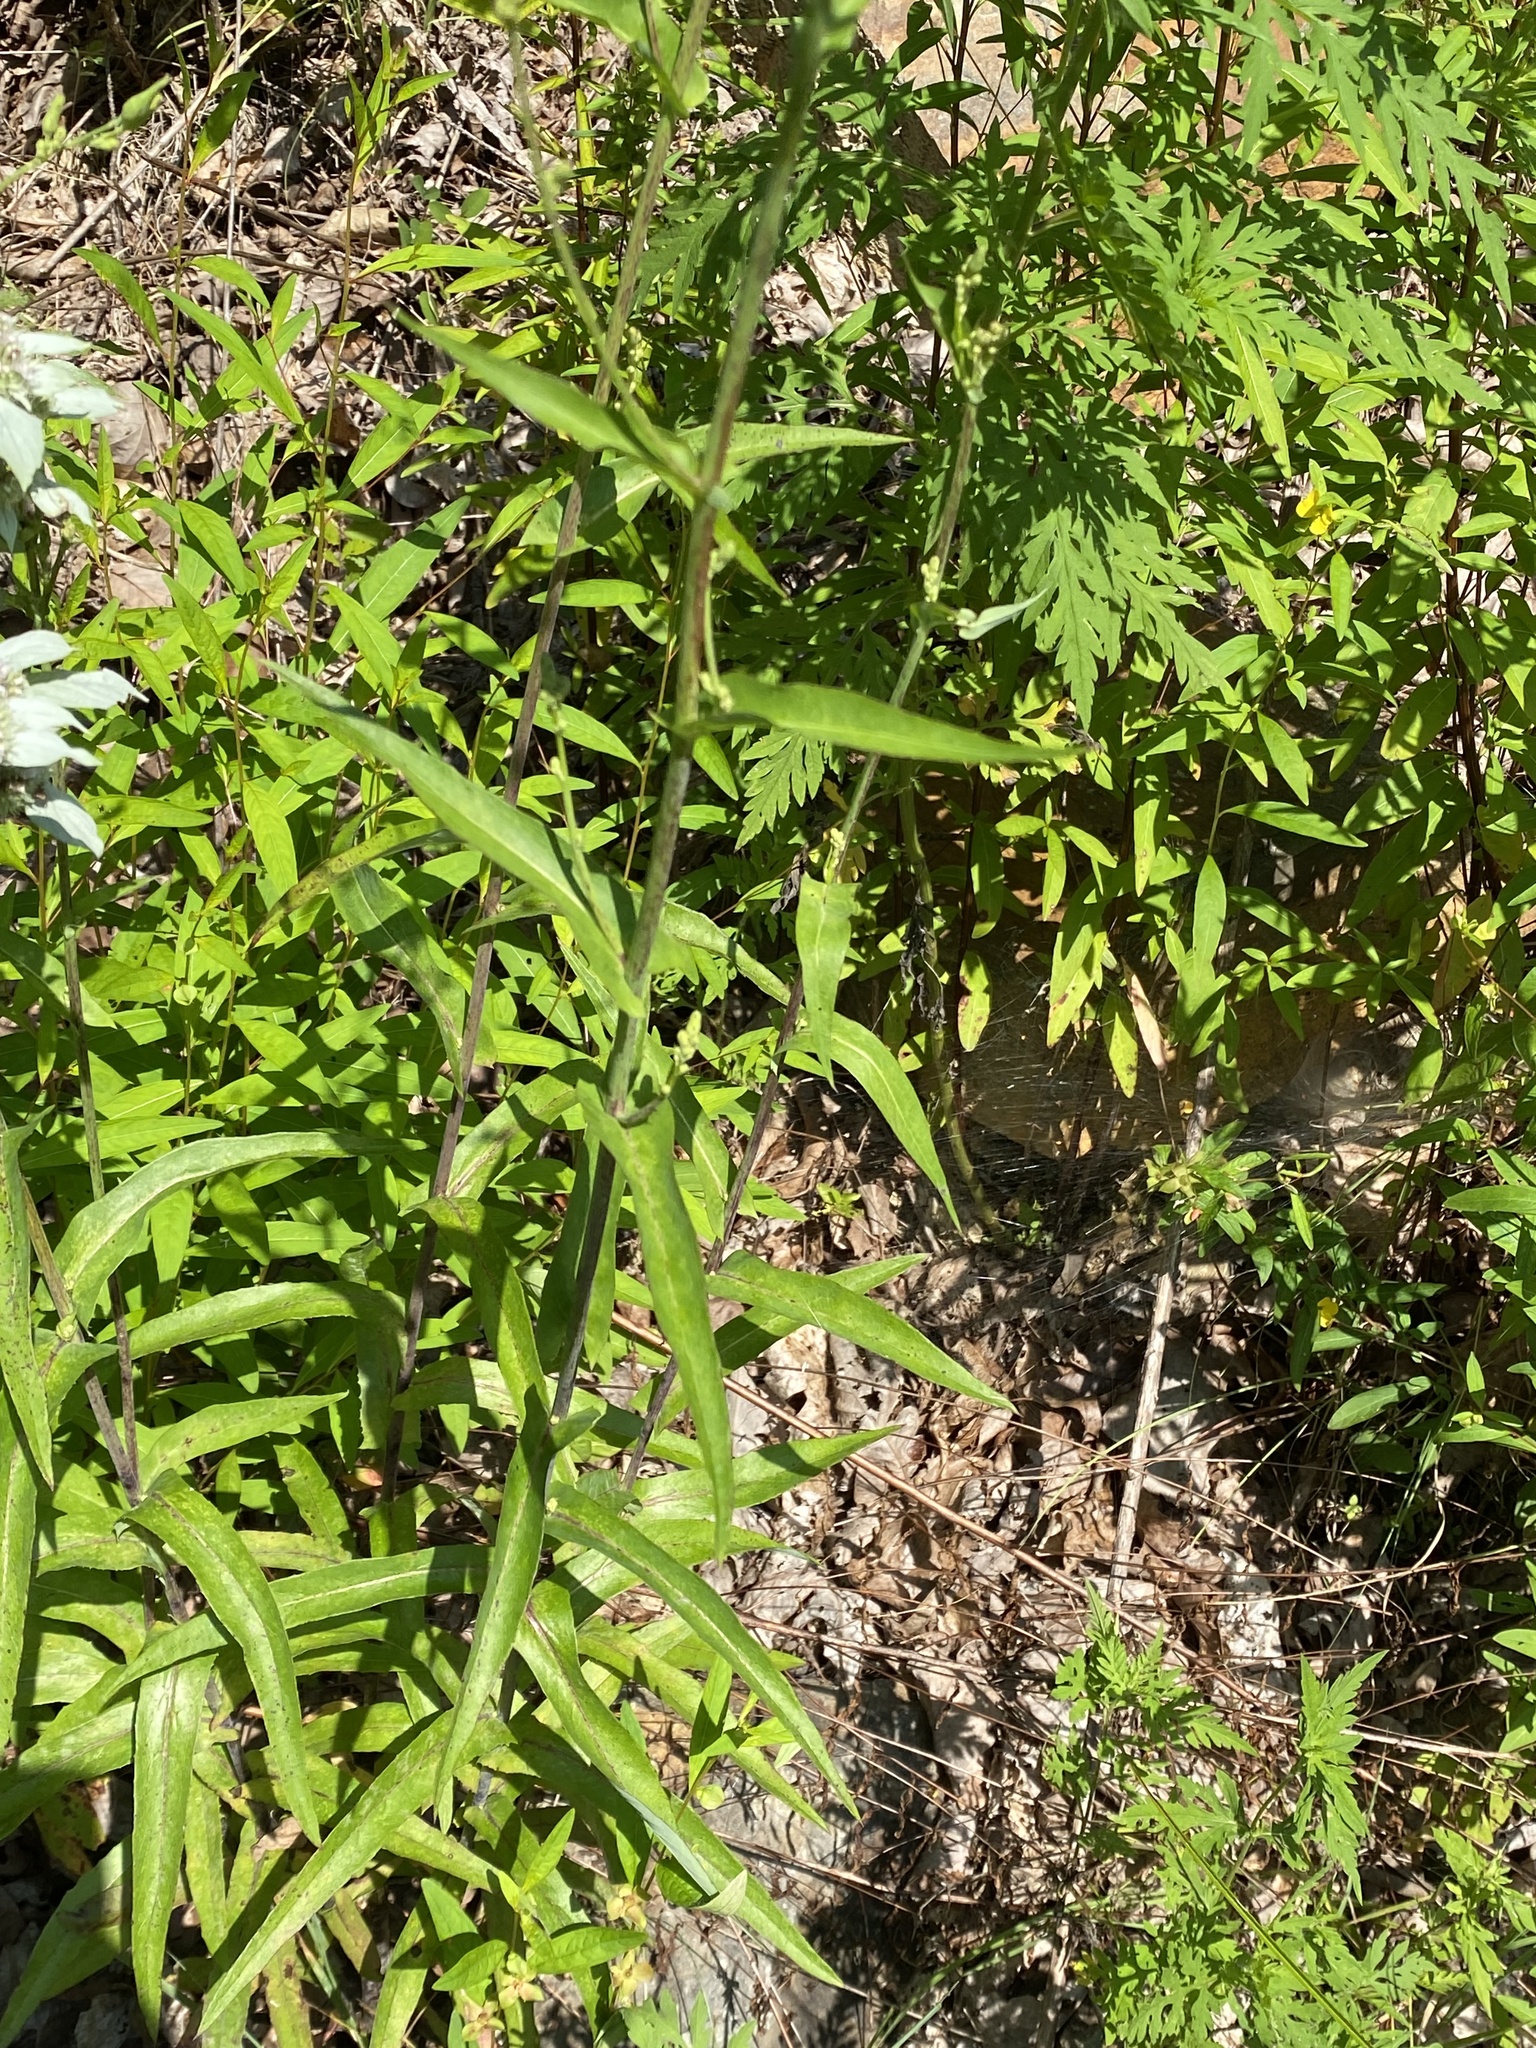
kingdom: Plantae
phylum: Tracheophyta
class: Magnoliopsida
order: Asterales
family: Asteraceae
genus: Lactuca
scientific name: Lactuca canadensis
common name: Canada lettuce
